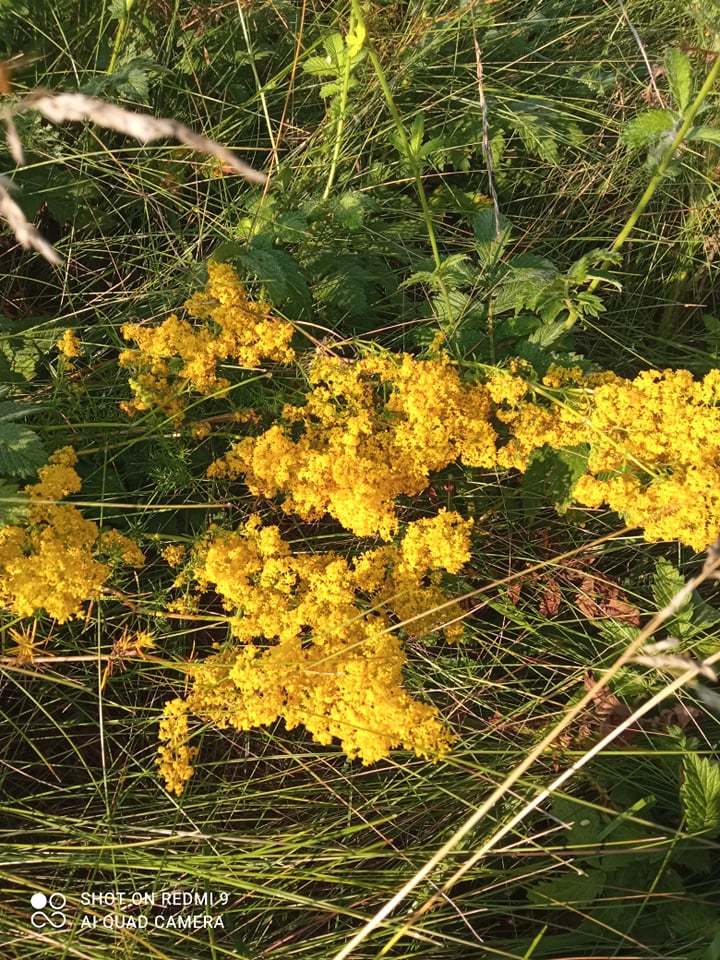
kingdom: Plantae
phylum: Tracheophyta
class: Magnoliopsida
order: Gentianales
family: Rubiaceae
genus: Galium
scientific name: Galium verum
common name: Lady's bedstraw
